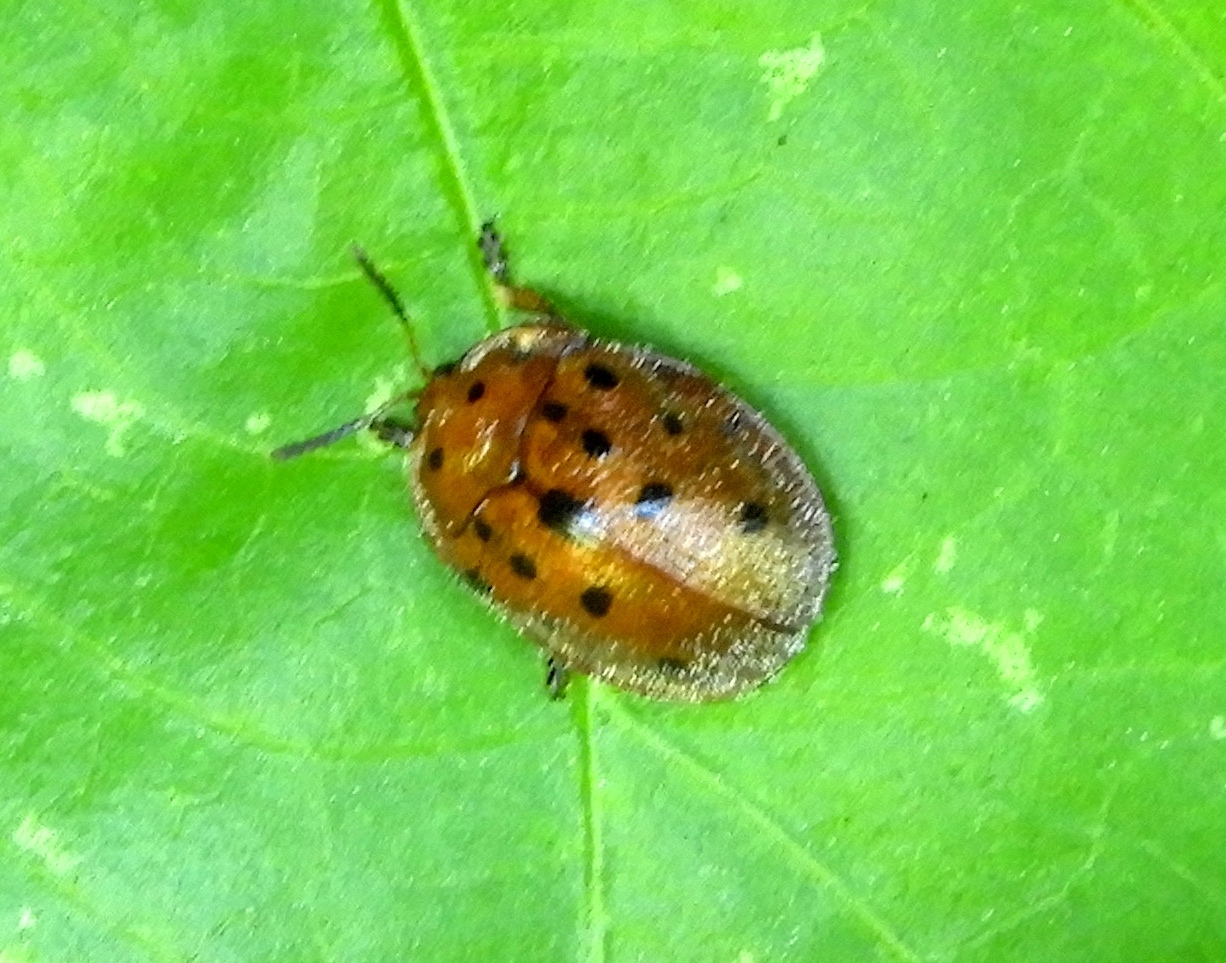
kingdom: Animalia
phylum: Arthropoda
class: Insecta
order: Coleoptera
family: Chrysomelidae
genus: Chelymorpha
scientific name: Chelymorpha
